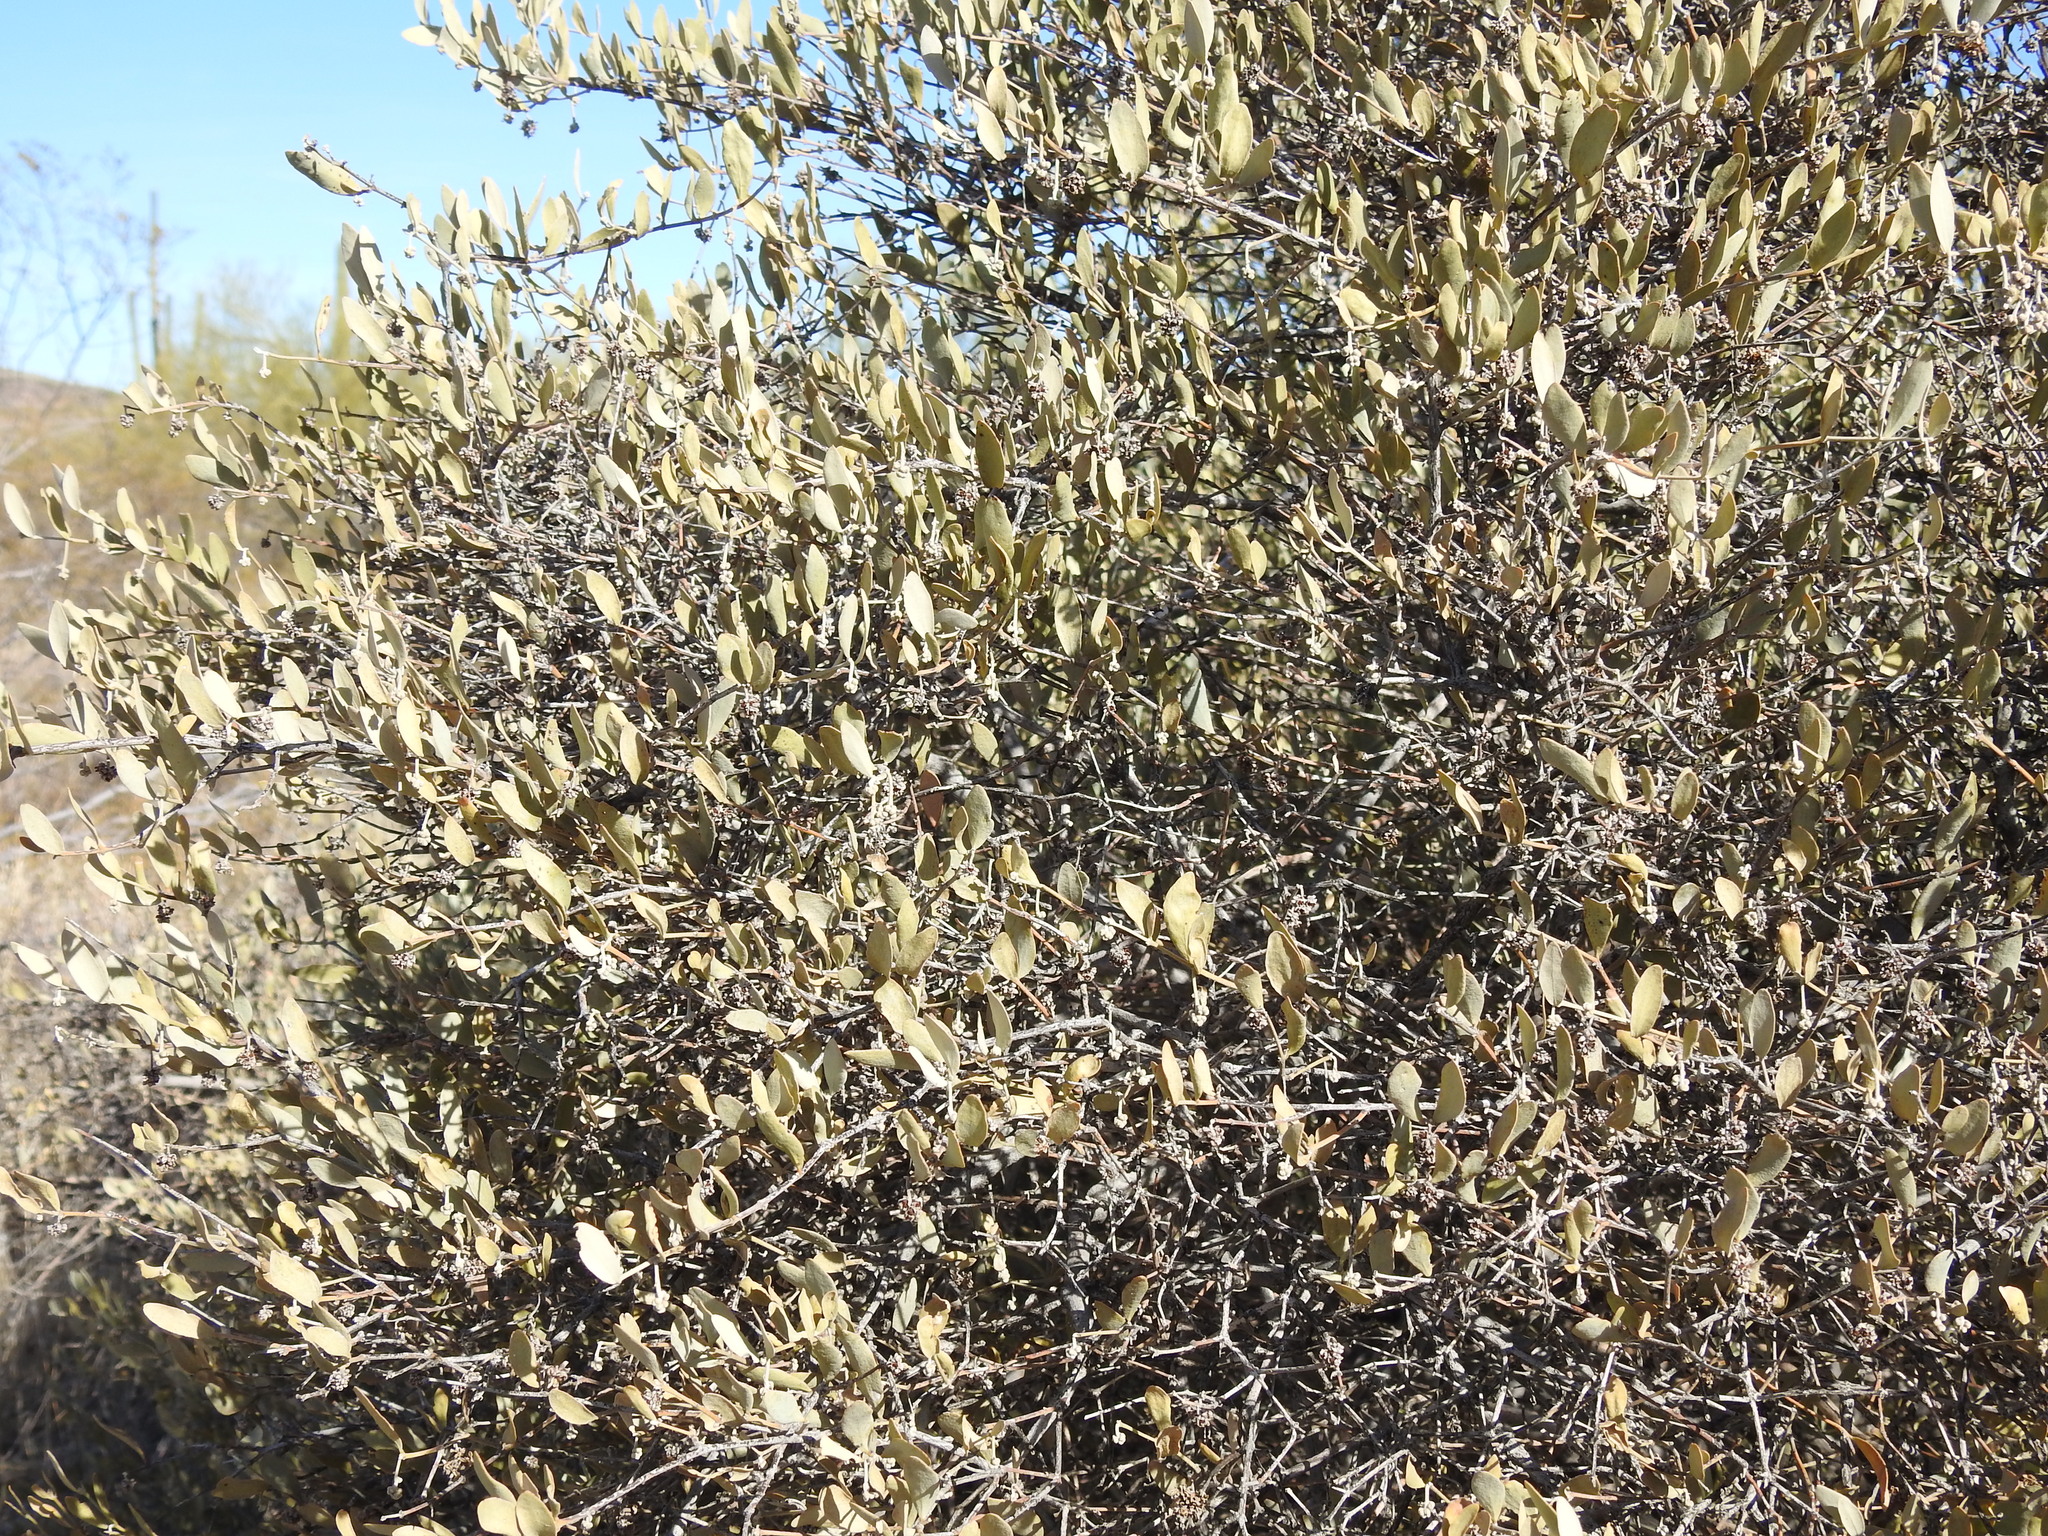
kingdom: Plantae
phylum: Tracheophyta
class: Magnoliopsida
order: Caryophyllales
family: Simmondsiaceae
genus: Simmondsia
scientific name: Simmondsia chinensis
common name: Jojoba
